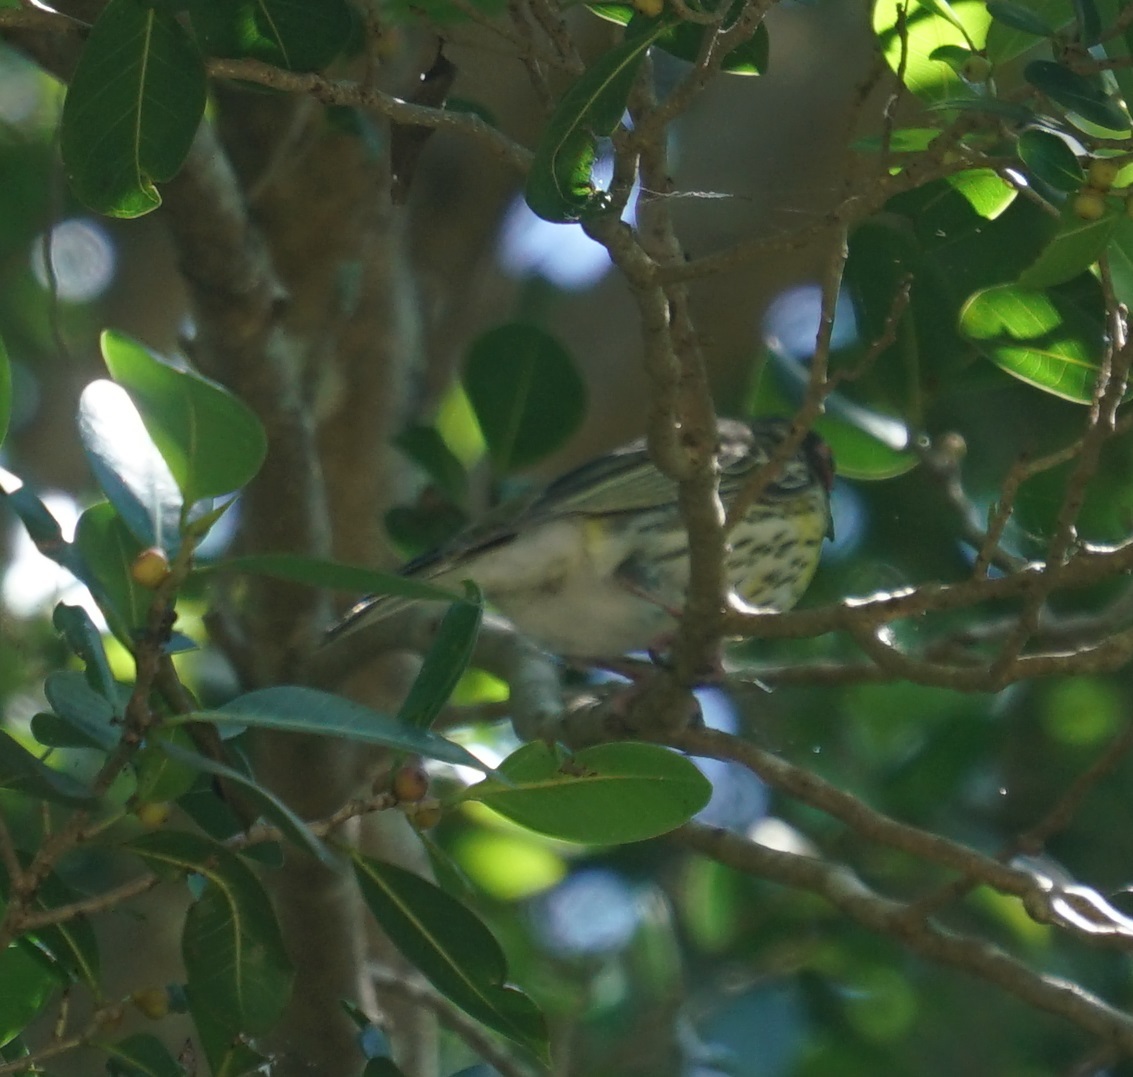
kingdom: Animalia
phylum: Chordata
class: Aves
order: Passeriformes
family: Oriolidae
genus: Sphecotheres
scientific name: Sphecotheres vieilloti
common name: Australasian figbird
